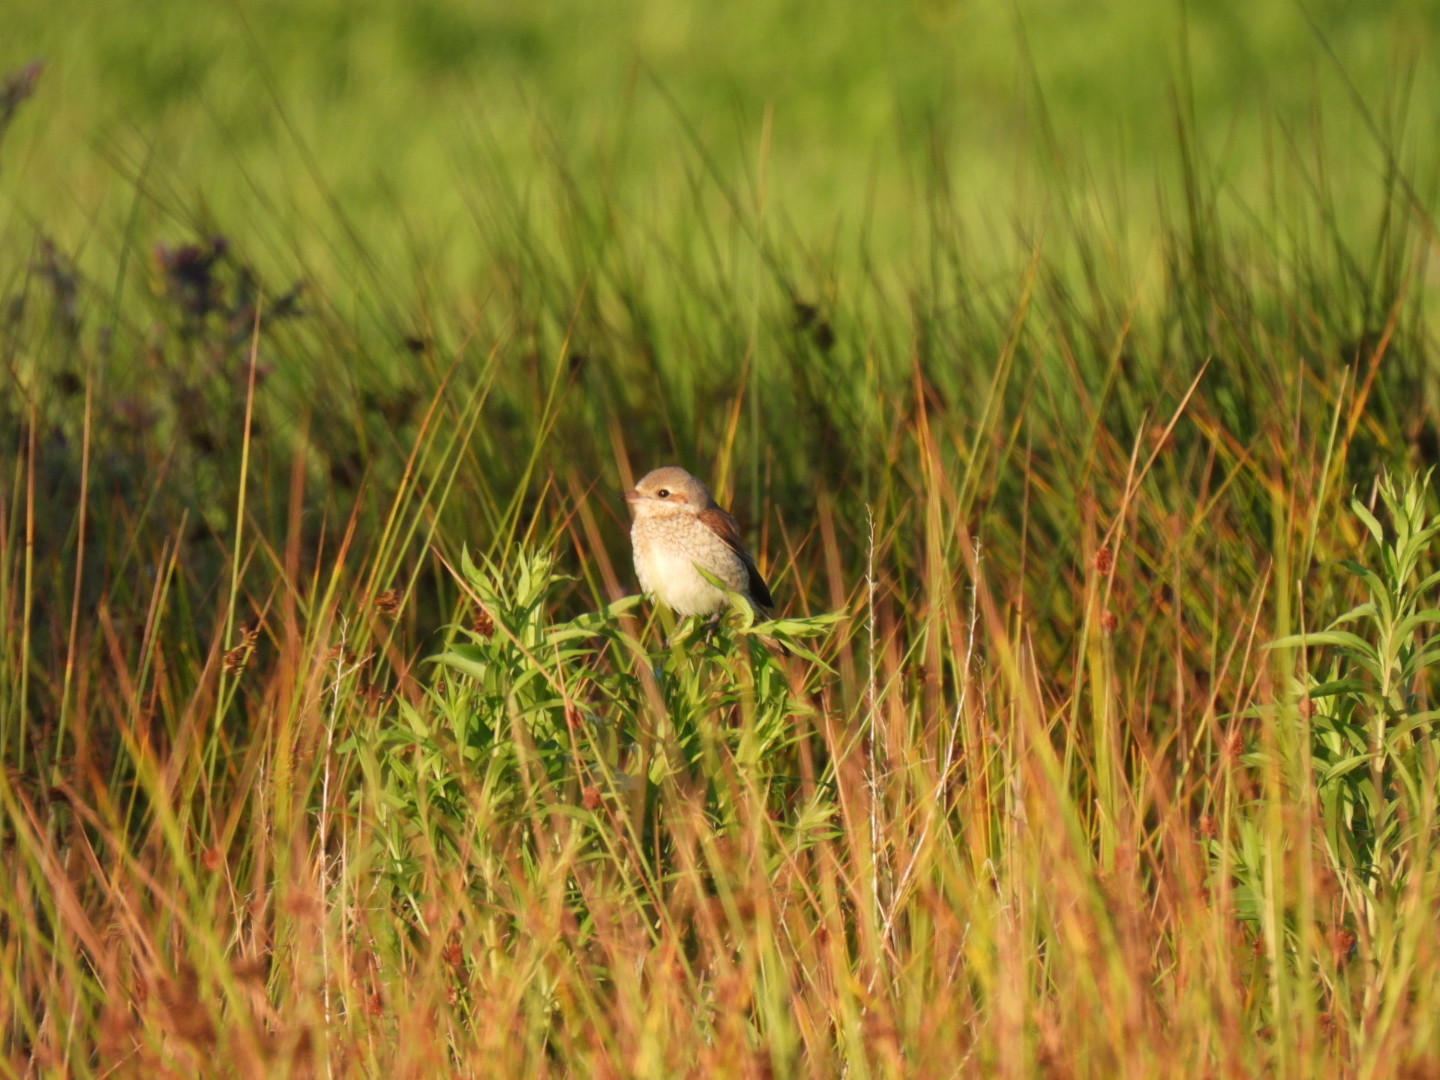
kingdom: Animalia
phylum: Chordata
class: Aves
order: Passeriformes
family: Laniidae
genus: Lanius
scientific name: Lanius collurio
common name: Red-backed shrike
